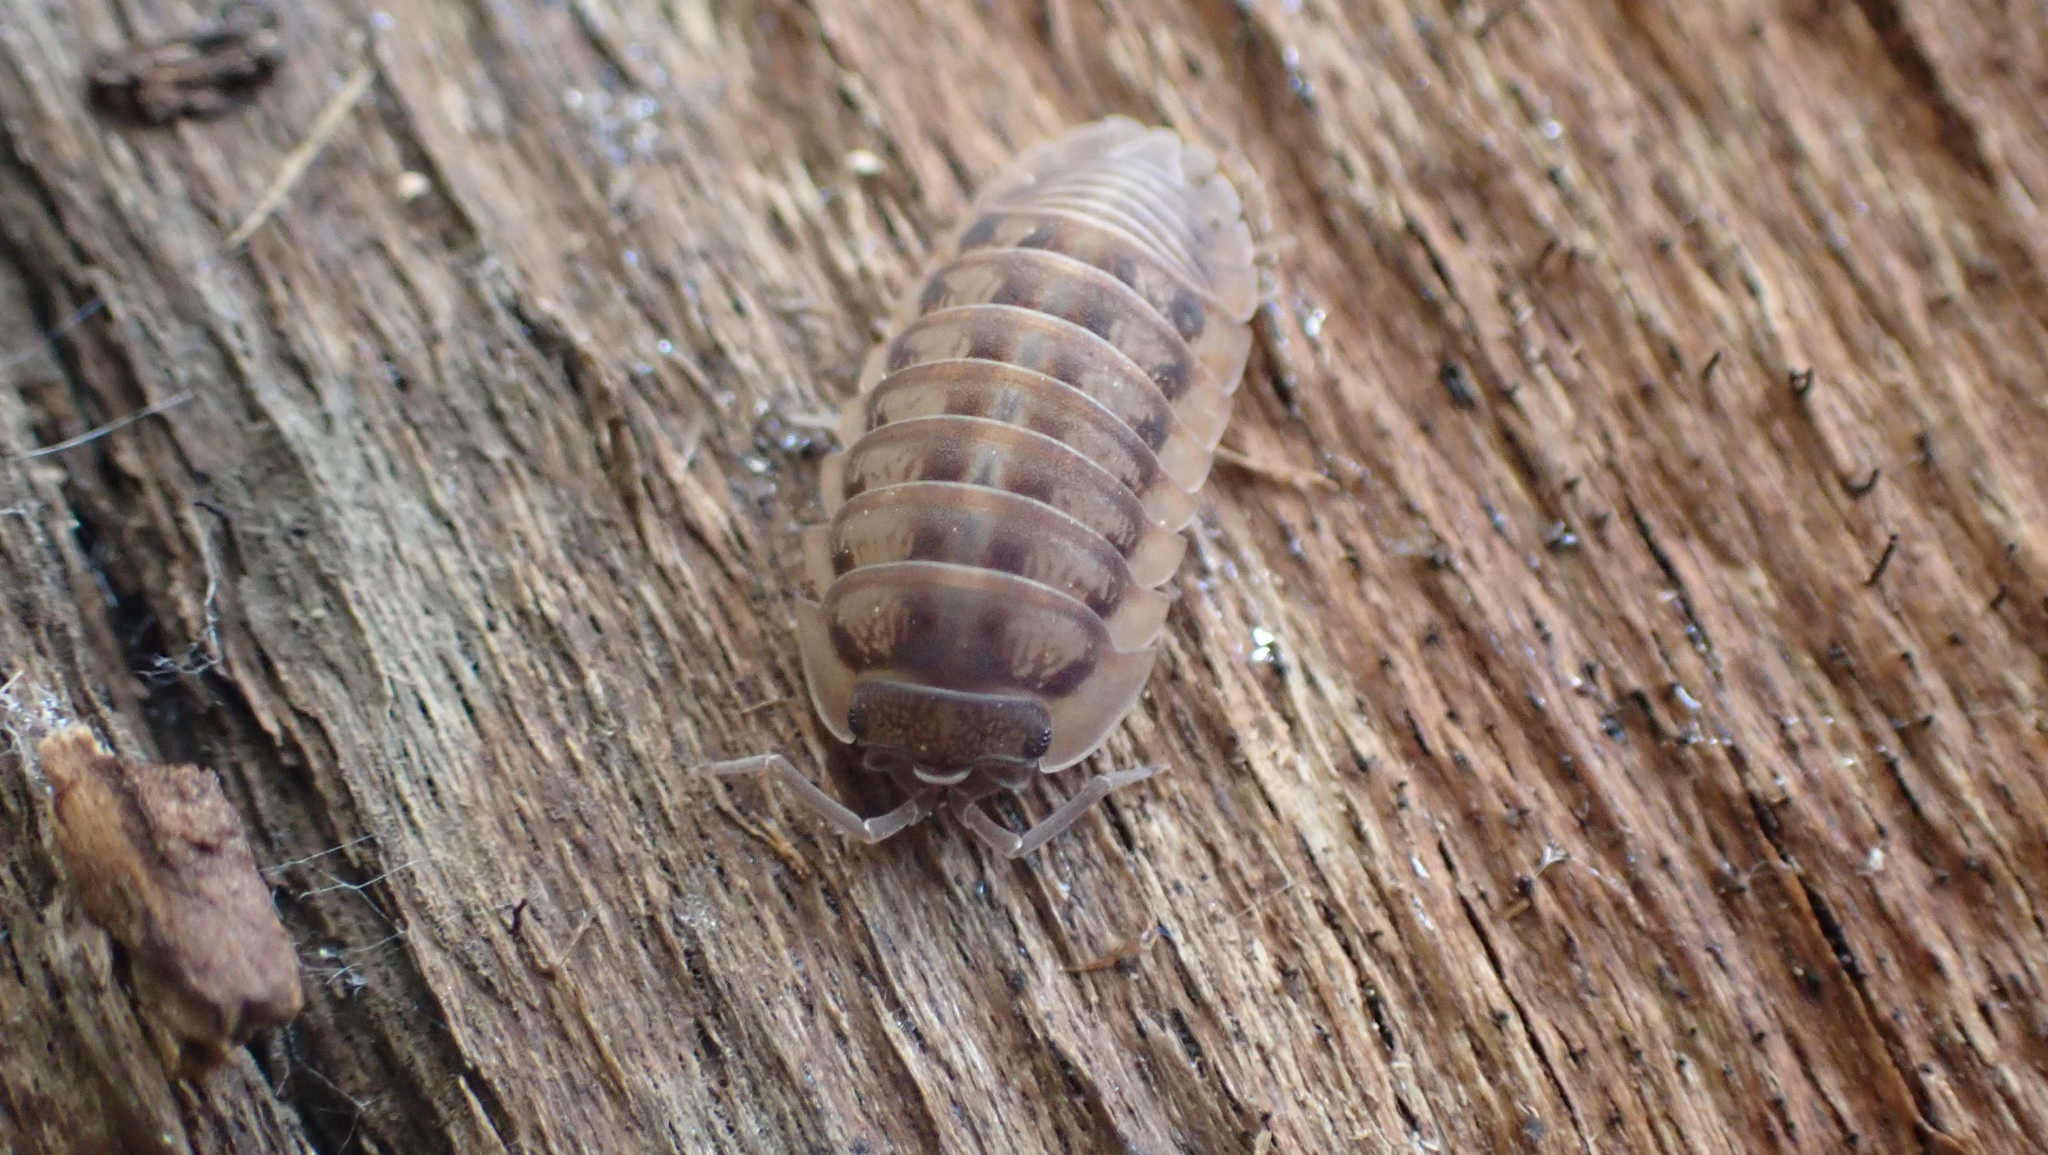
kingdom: Animalia
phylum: Arthropoda
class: Malacostraca
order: Isopoda
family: Armadillidiidae
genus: Armadillidium
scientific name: Armadillidium nasatum
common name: Isopod
